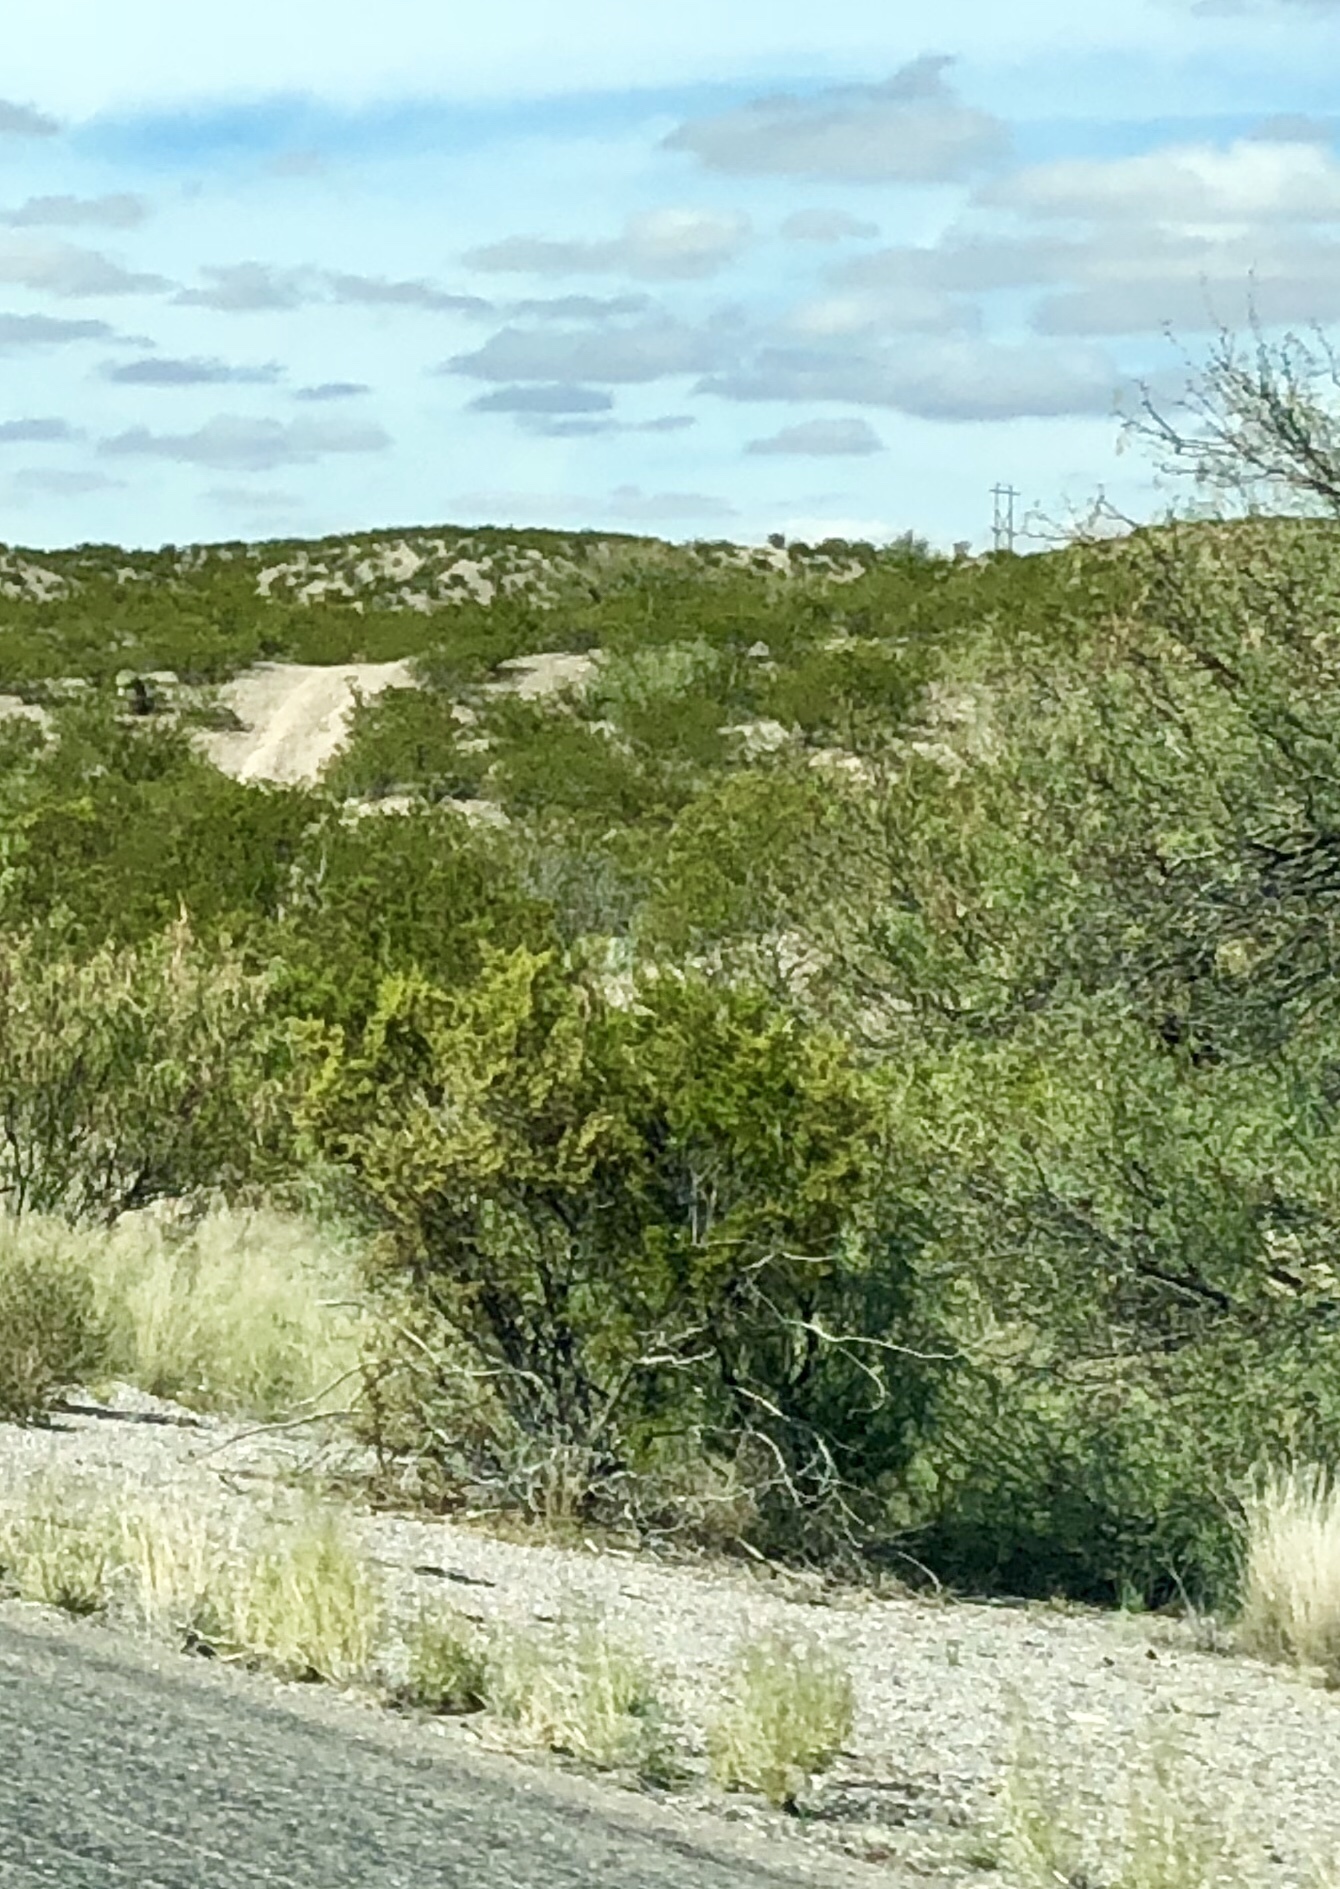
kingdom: Plantae
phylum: Tracheophyta
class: Magnoliopsida
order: Zygophyllales
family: Zygophyllaceae
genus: Larrea
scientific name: Larrea tridentata
